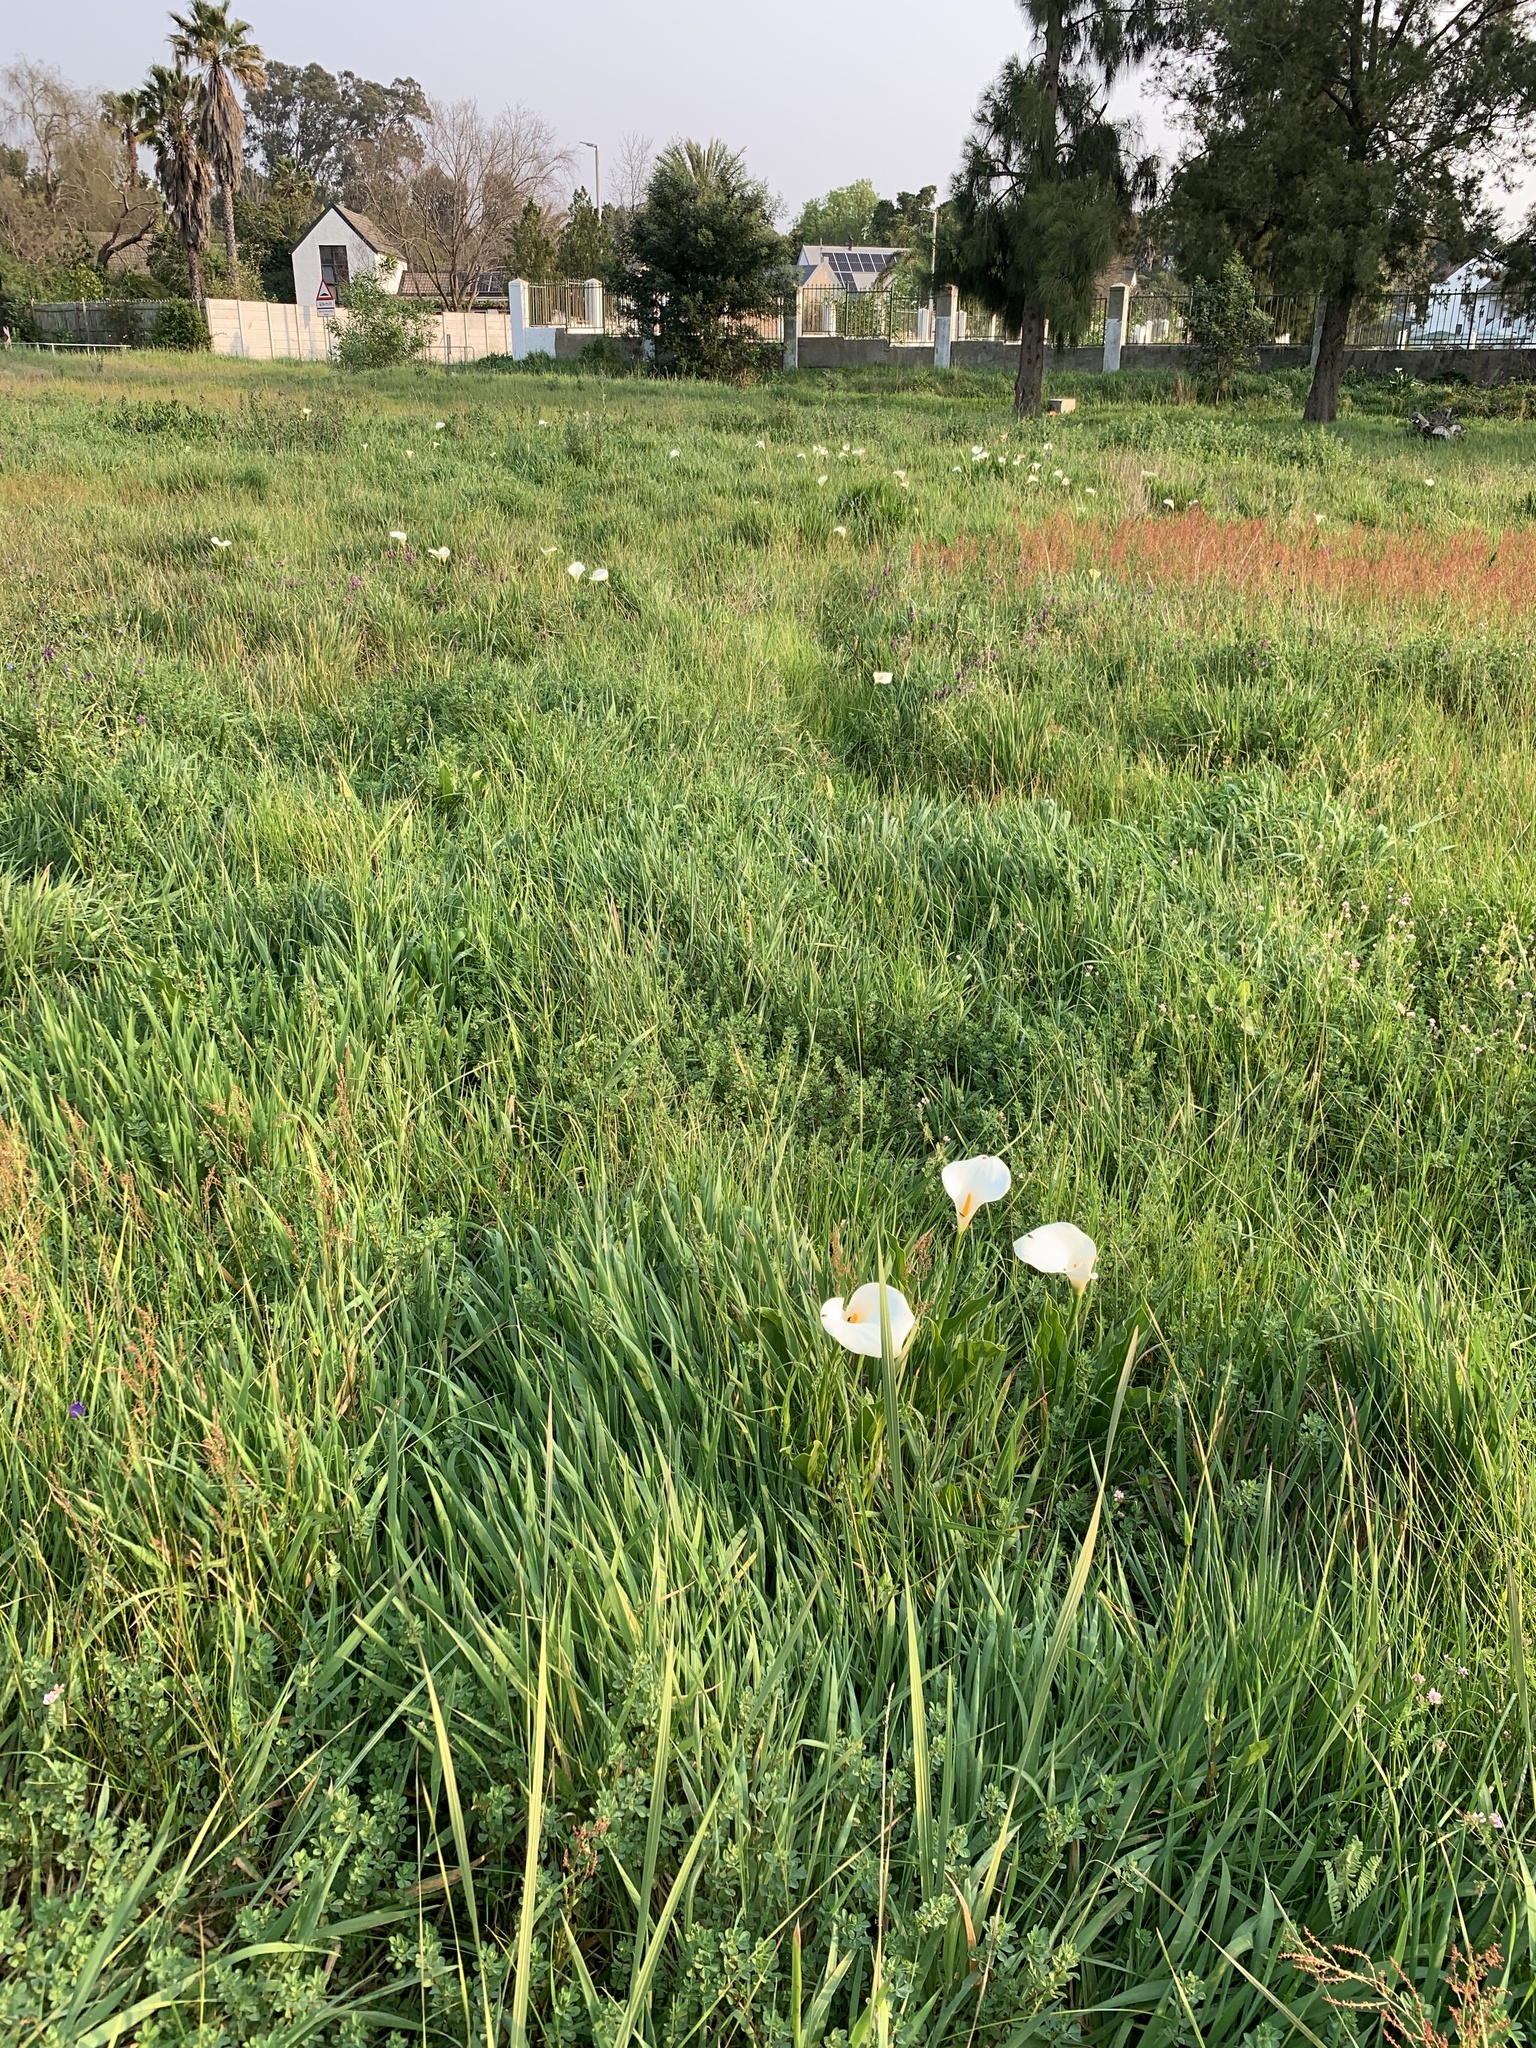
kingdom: Plantae
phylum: Tracheophyta
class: Liliopsida
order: Alismatales
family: Araceae
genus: Zantedeschia
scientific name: Zantedeschia aethiopica
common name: Altar-lily
